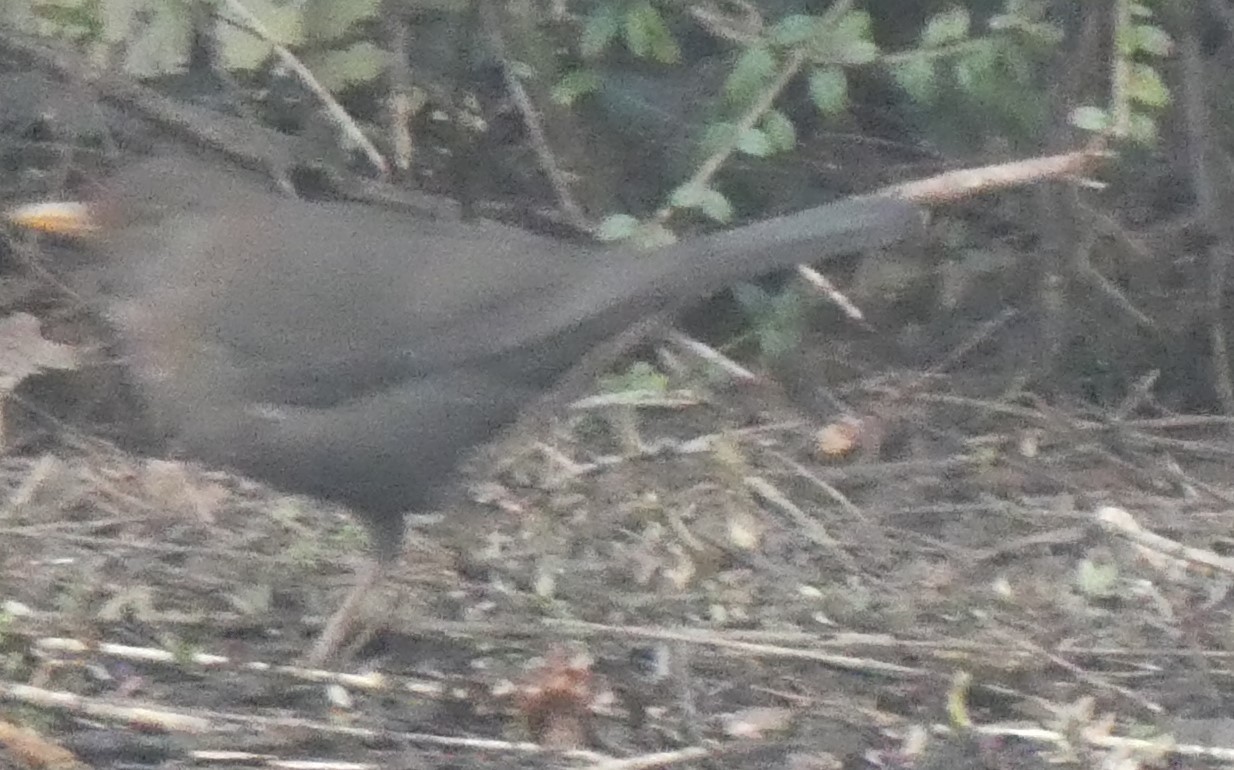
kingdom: Animalia
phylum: Chordata
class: Aves
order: Passeriformes
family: Turdidae
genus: Turdus
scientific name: Turdus merula
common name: Common blackbird
